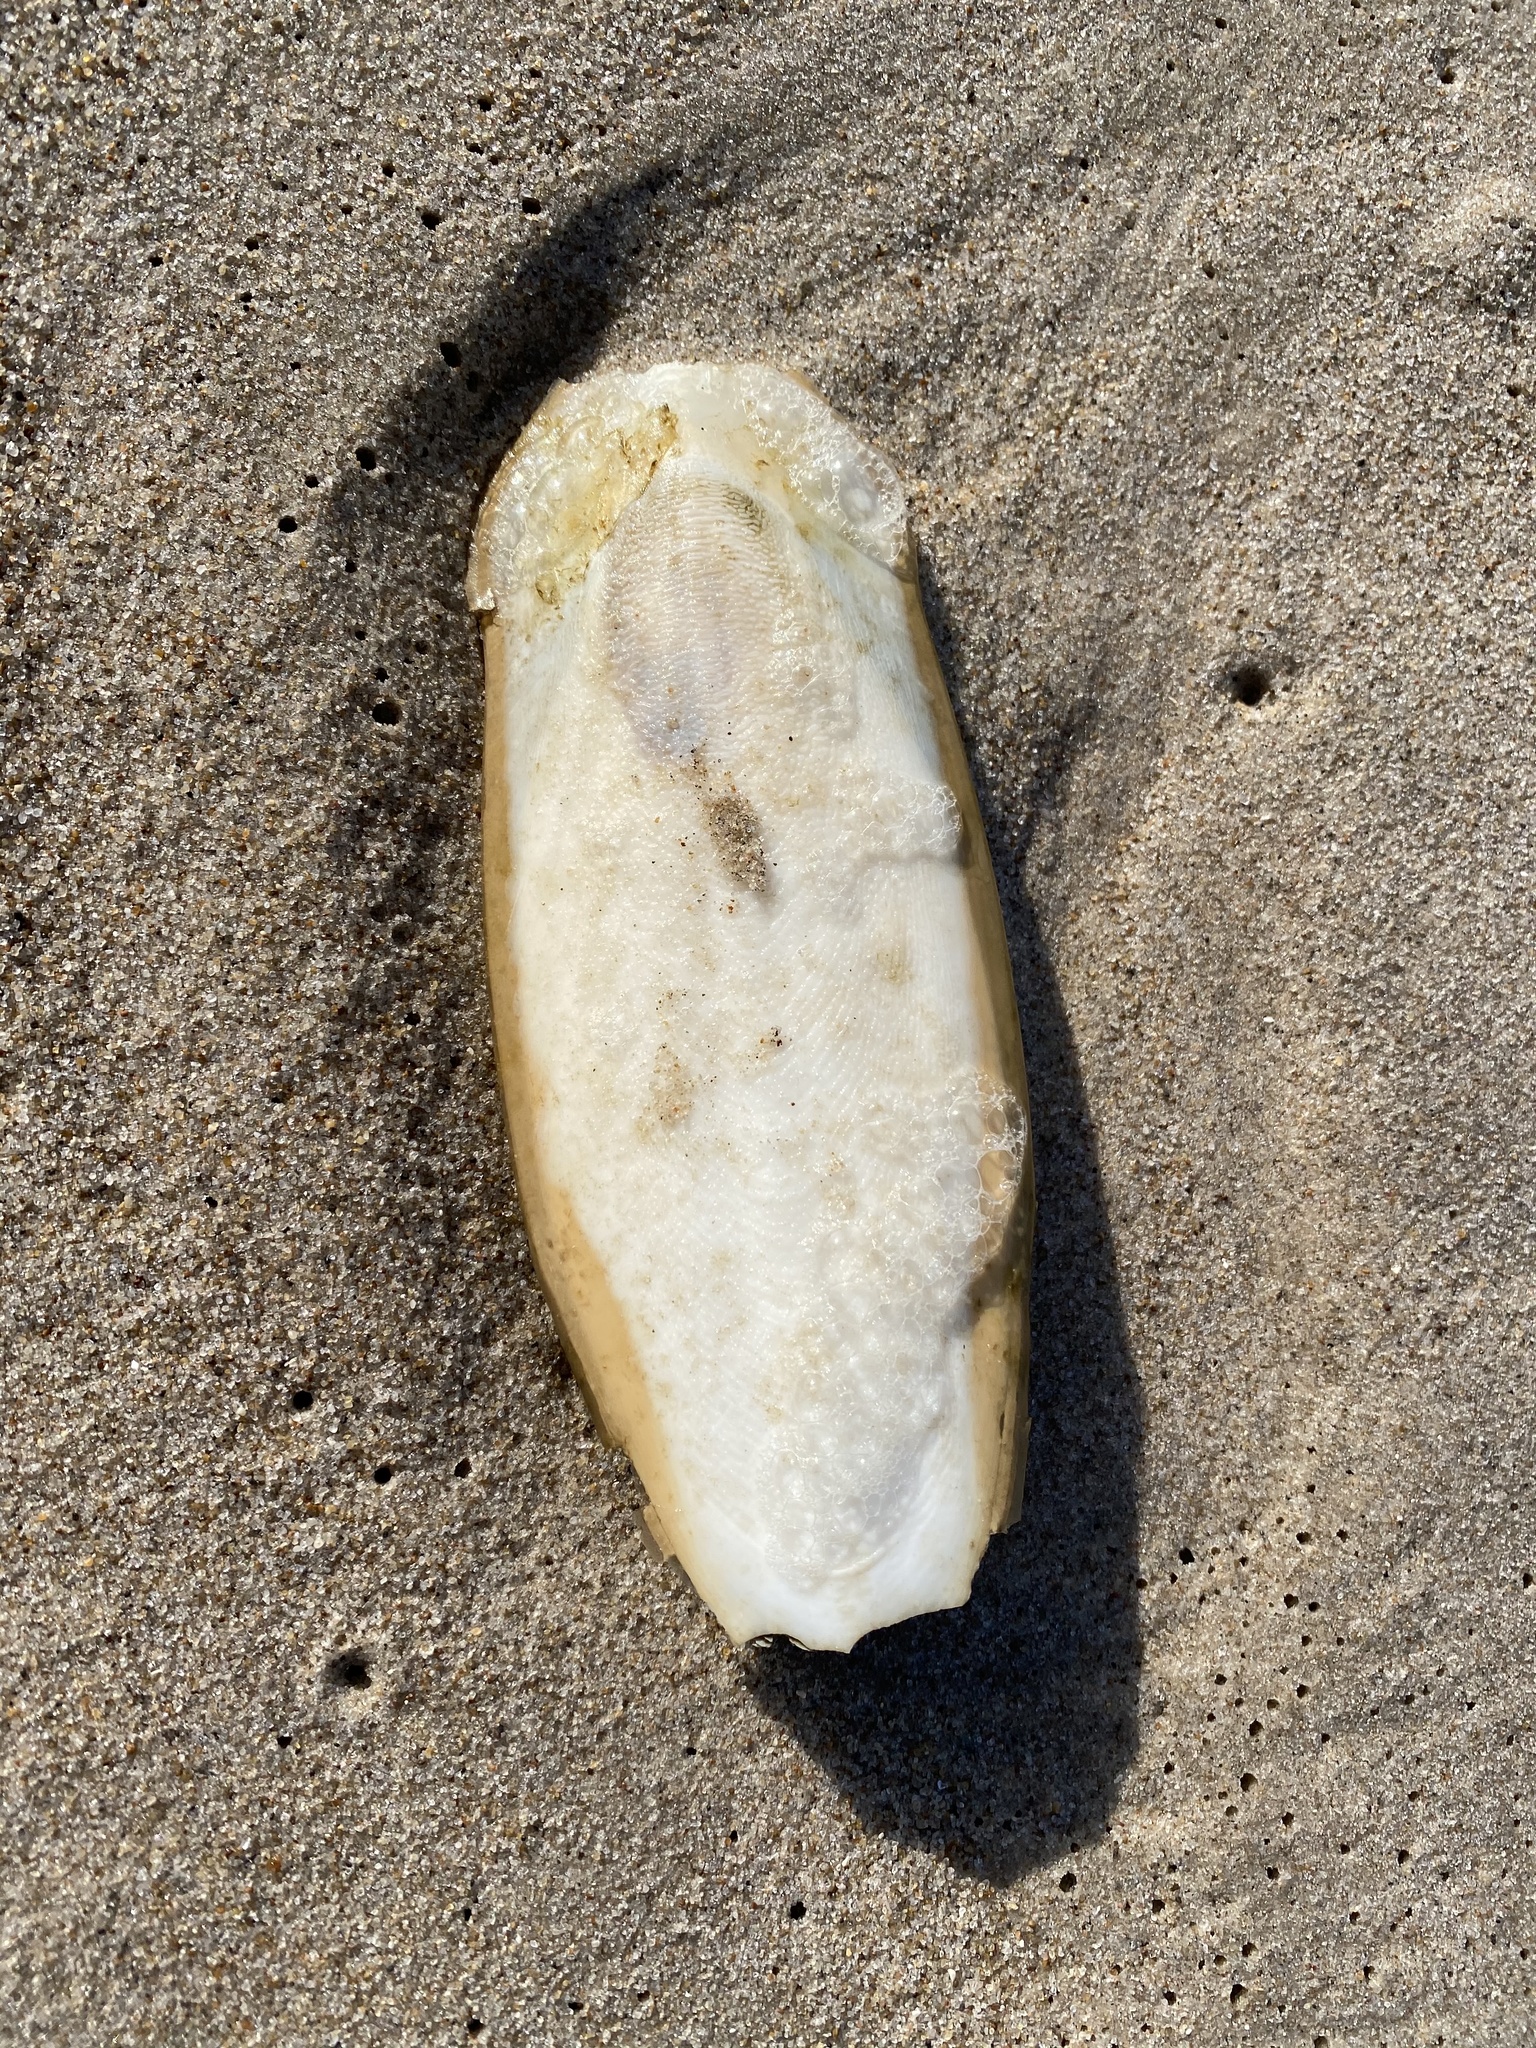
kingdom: Animalia
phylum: Mollusca
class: Cephalopoda
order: Sepiida
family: Sepiidae
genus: Sepia
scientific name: Sepia officinalis
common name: Common cuttlefish
